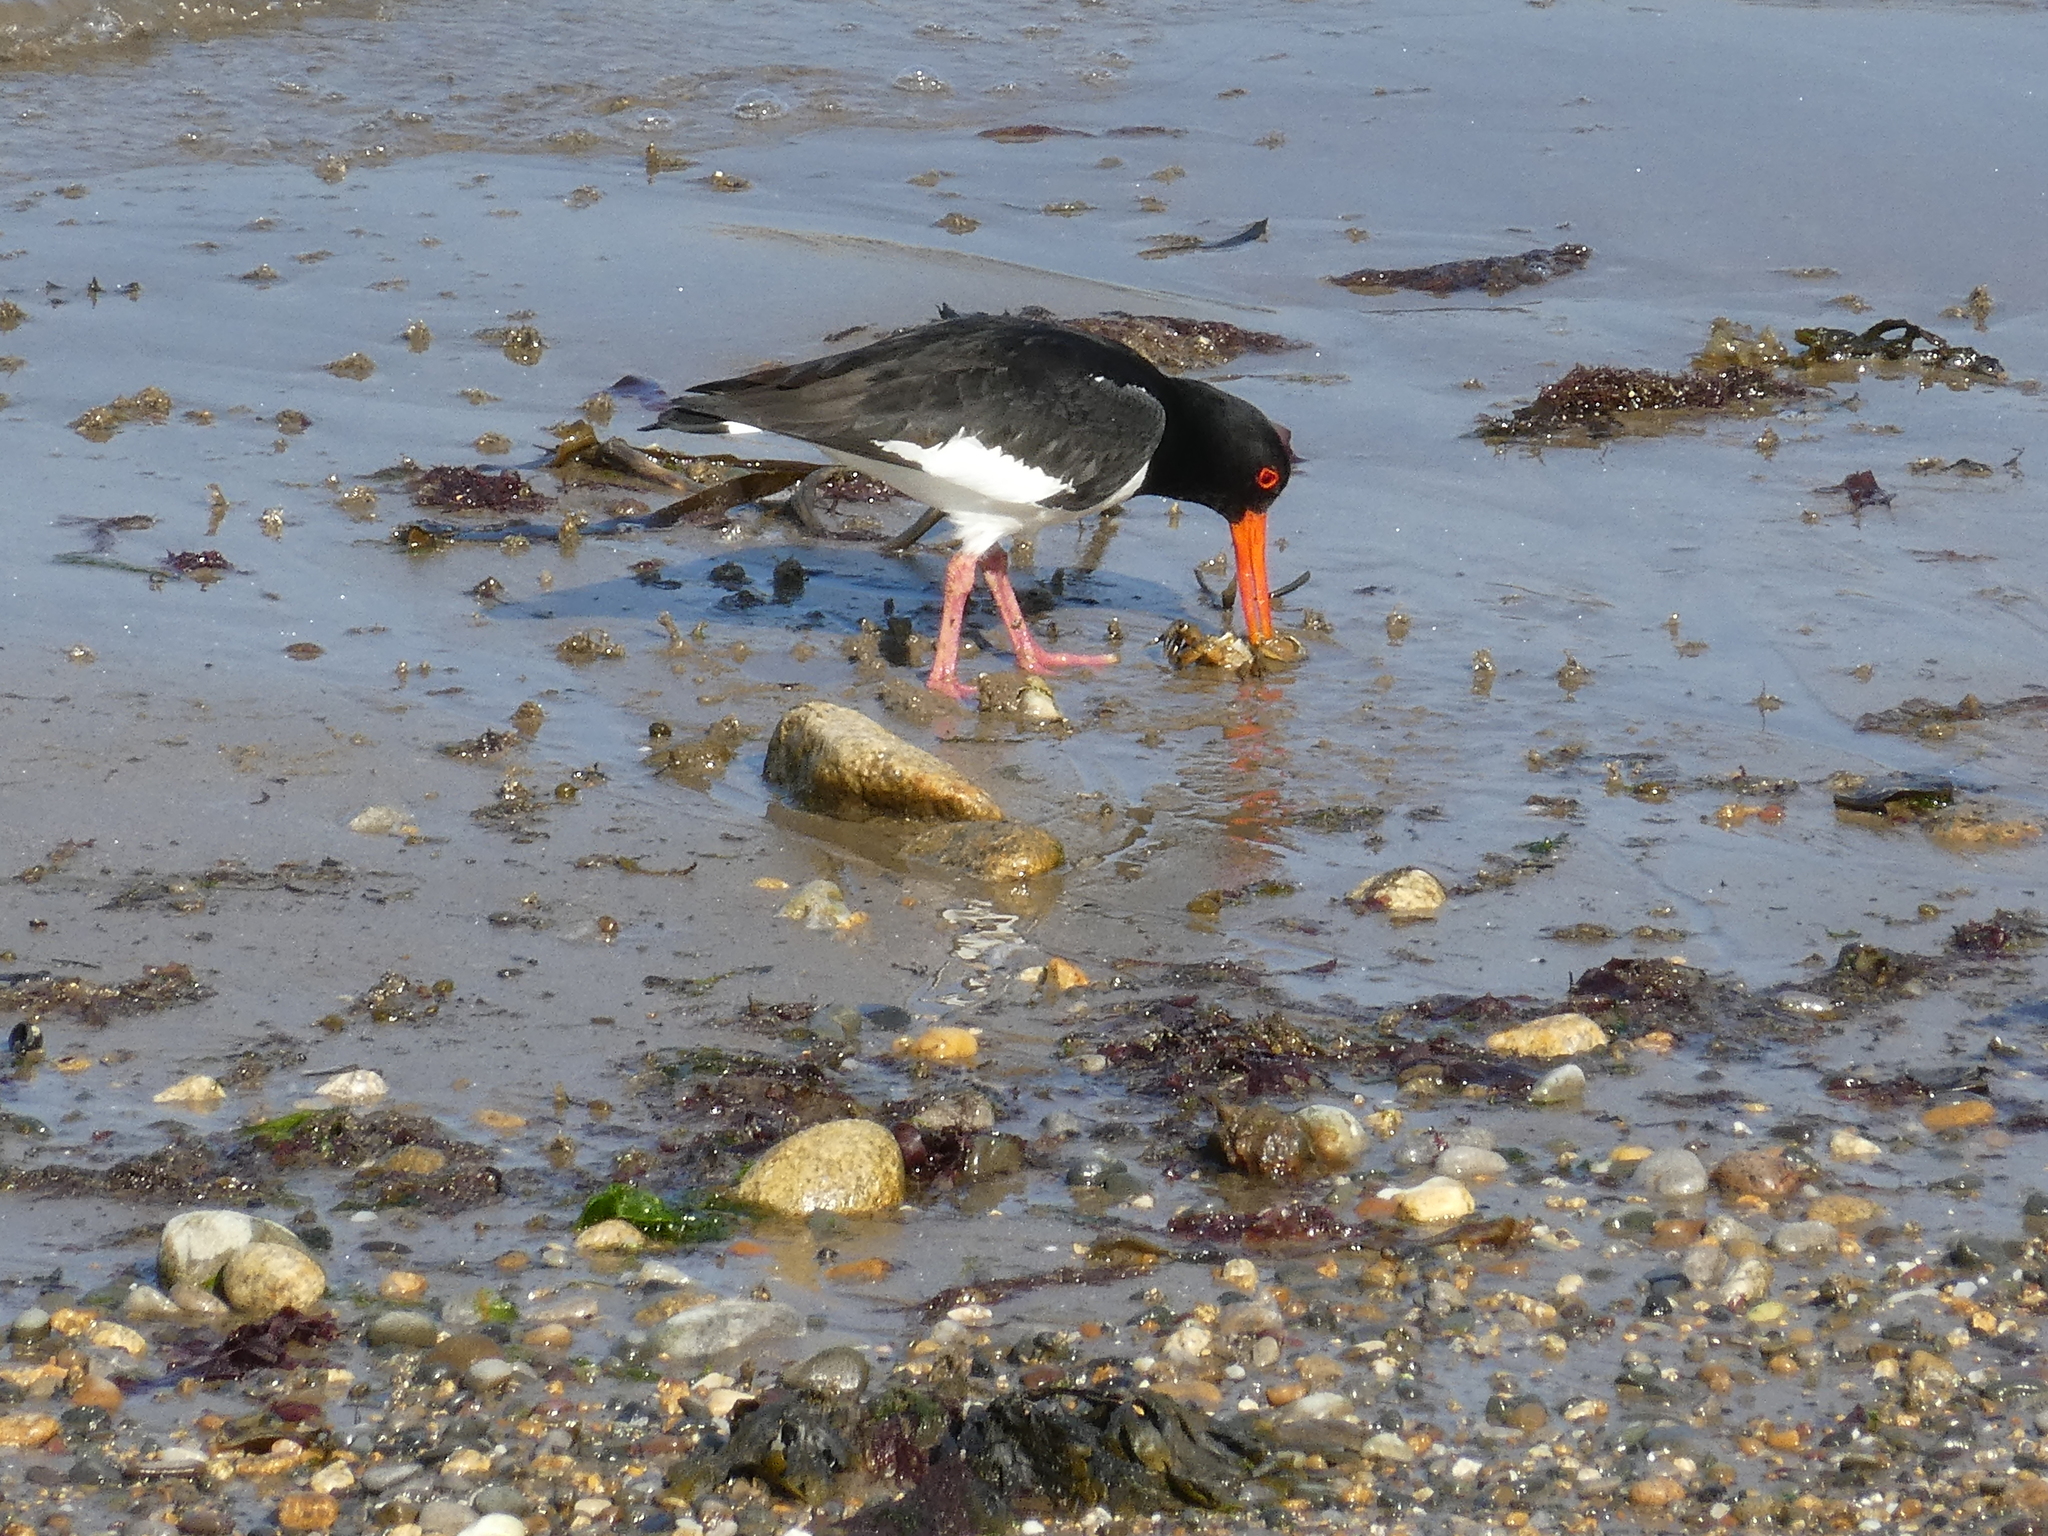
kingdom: Animalia
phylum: Chordata
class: Aves
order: Charadriiformes
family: Haematopodidae
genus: Haematopus
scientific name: Haematopus ostralegus
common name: Eurasian oystercatcher
